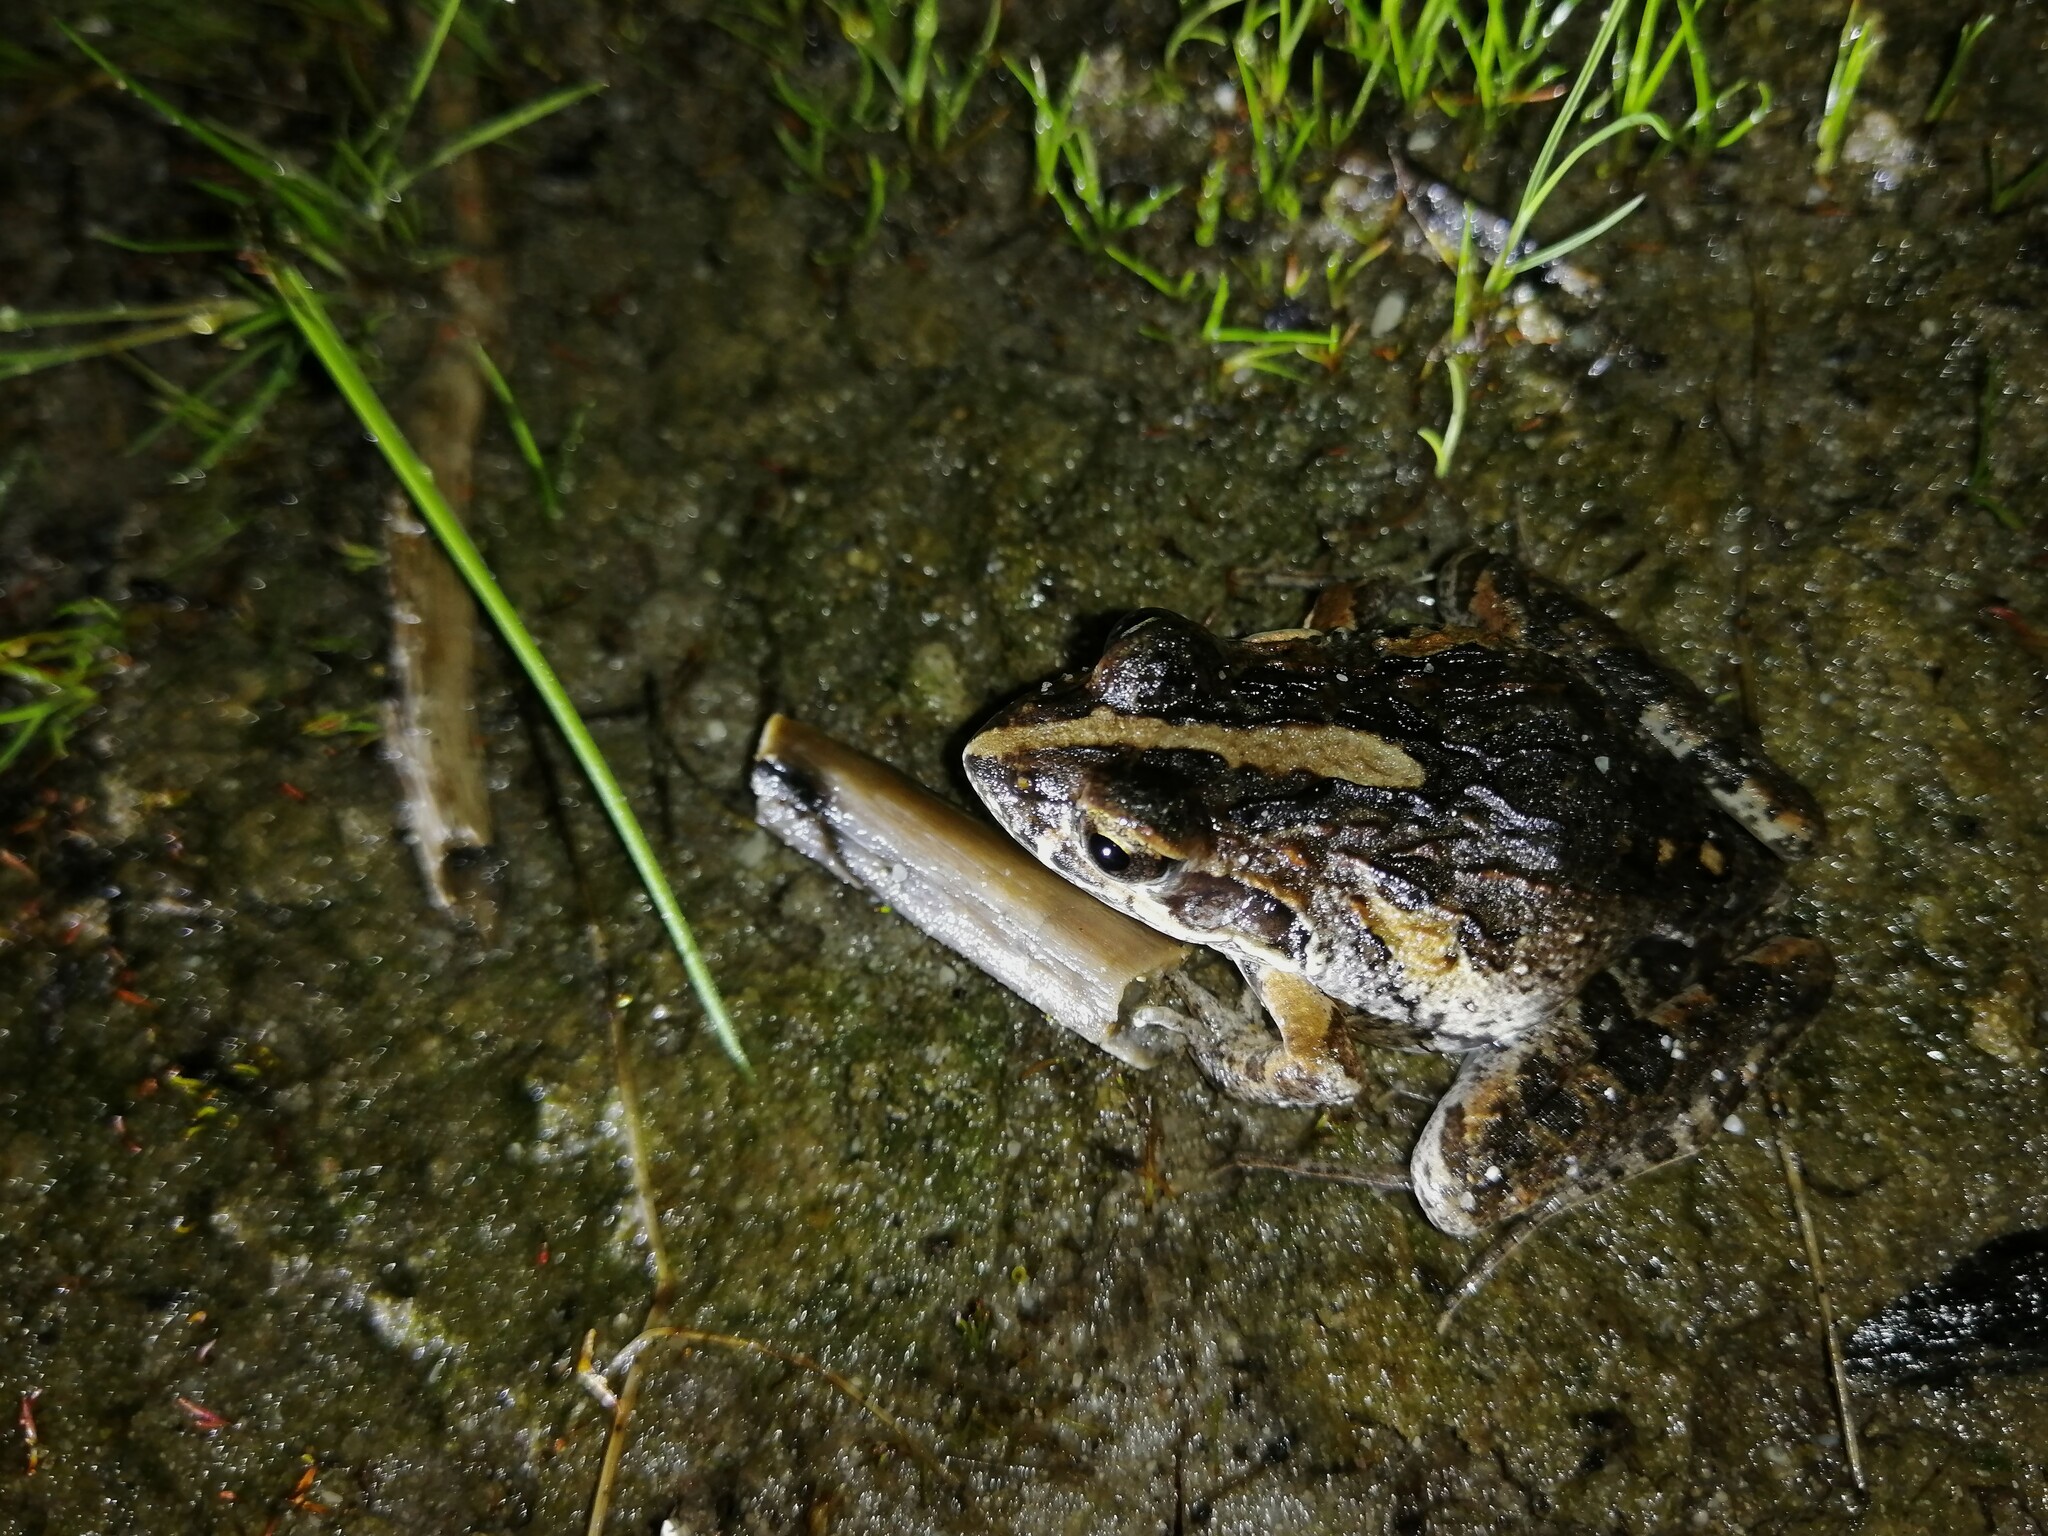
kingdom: Animalia
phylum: Chordata
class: Amphibia
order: Anura
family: Pyxicephalidae
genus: Strongylopus
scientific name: Strongylopus grayii
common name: Gray's stream frog
